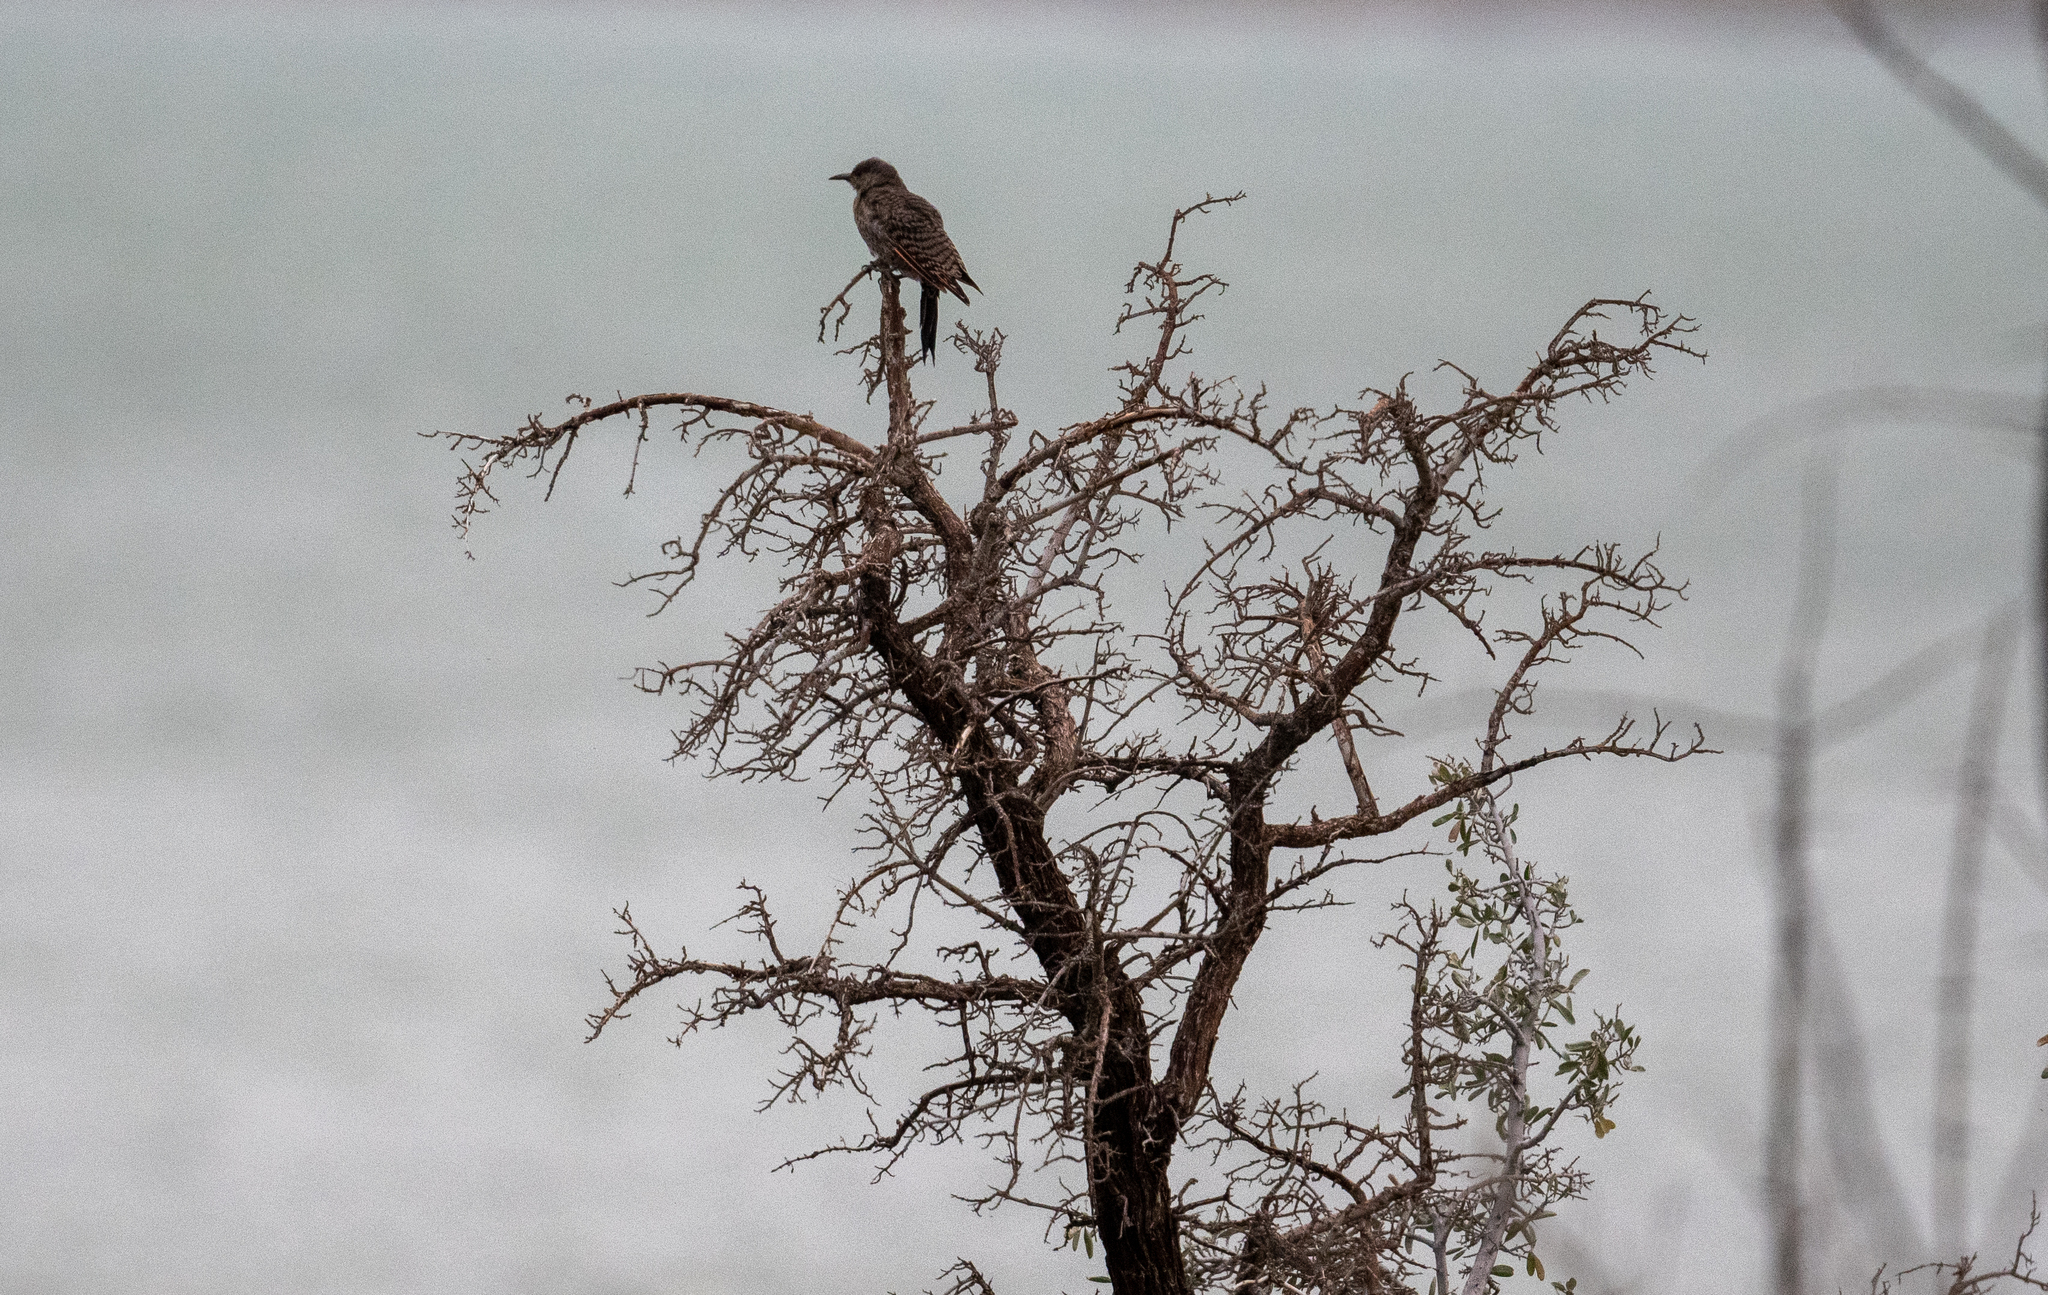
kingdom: Animalia
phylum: Chordata
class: Aves
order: Piciformes
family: Picidae
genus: Colaptes
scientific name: Colaptes auratus
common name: Northern flicker
